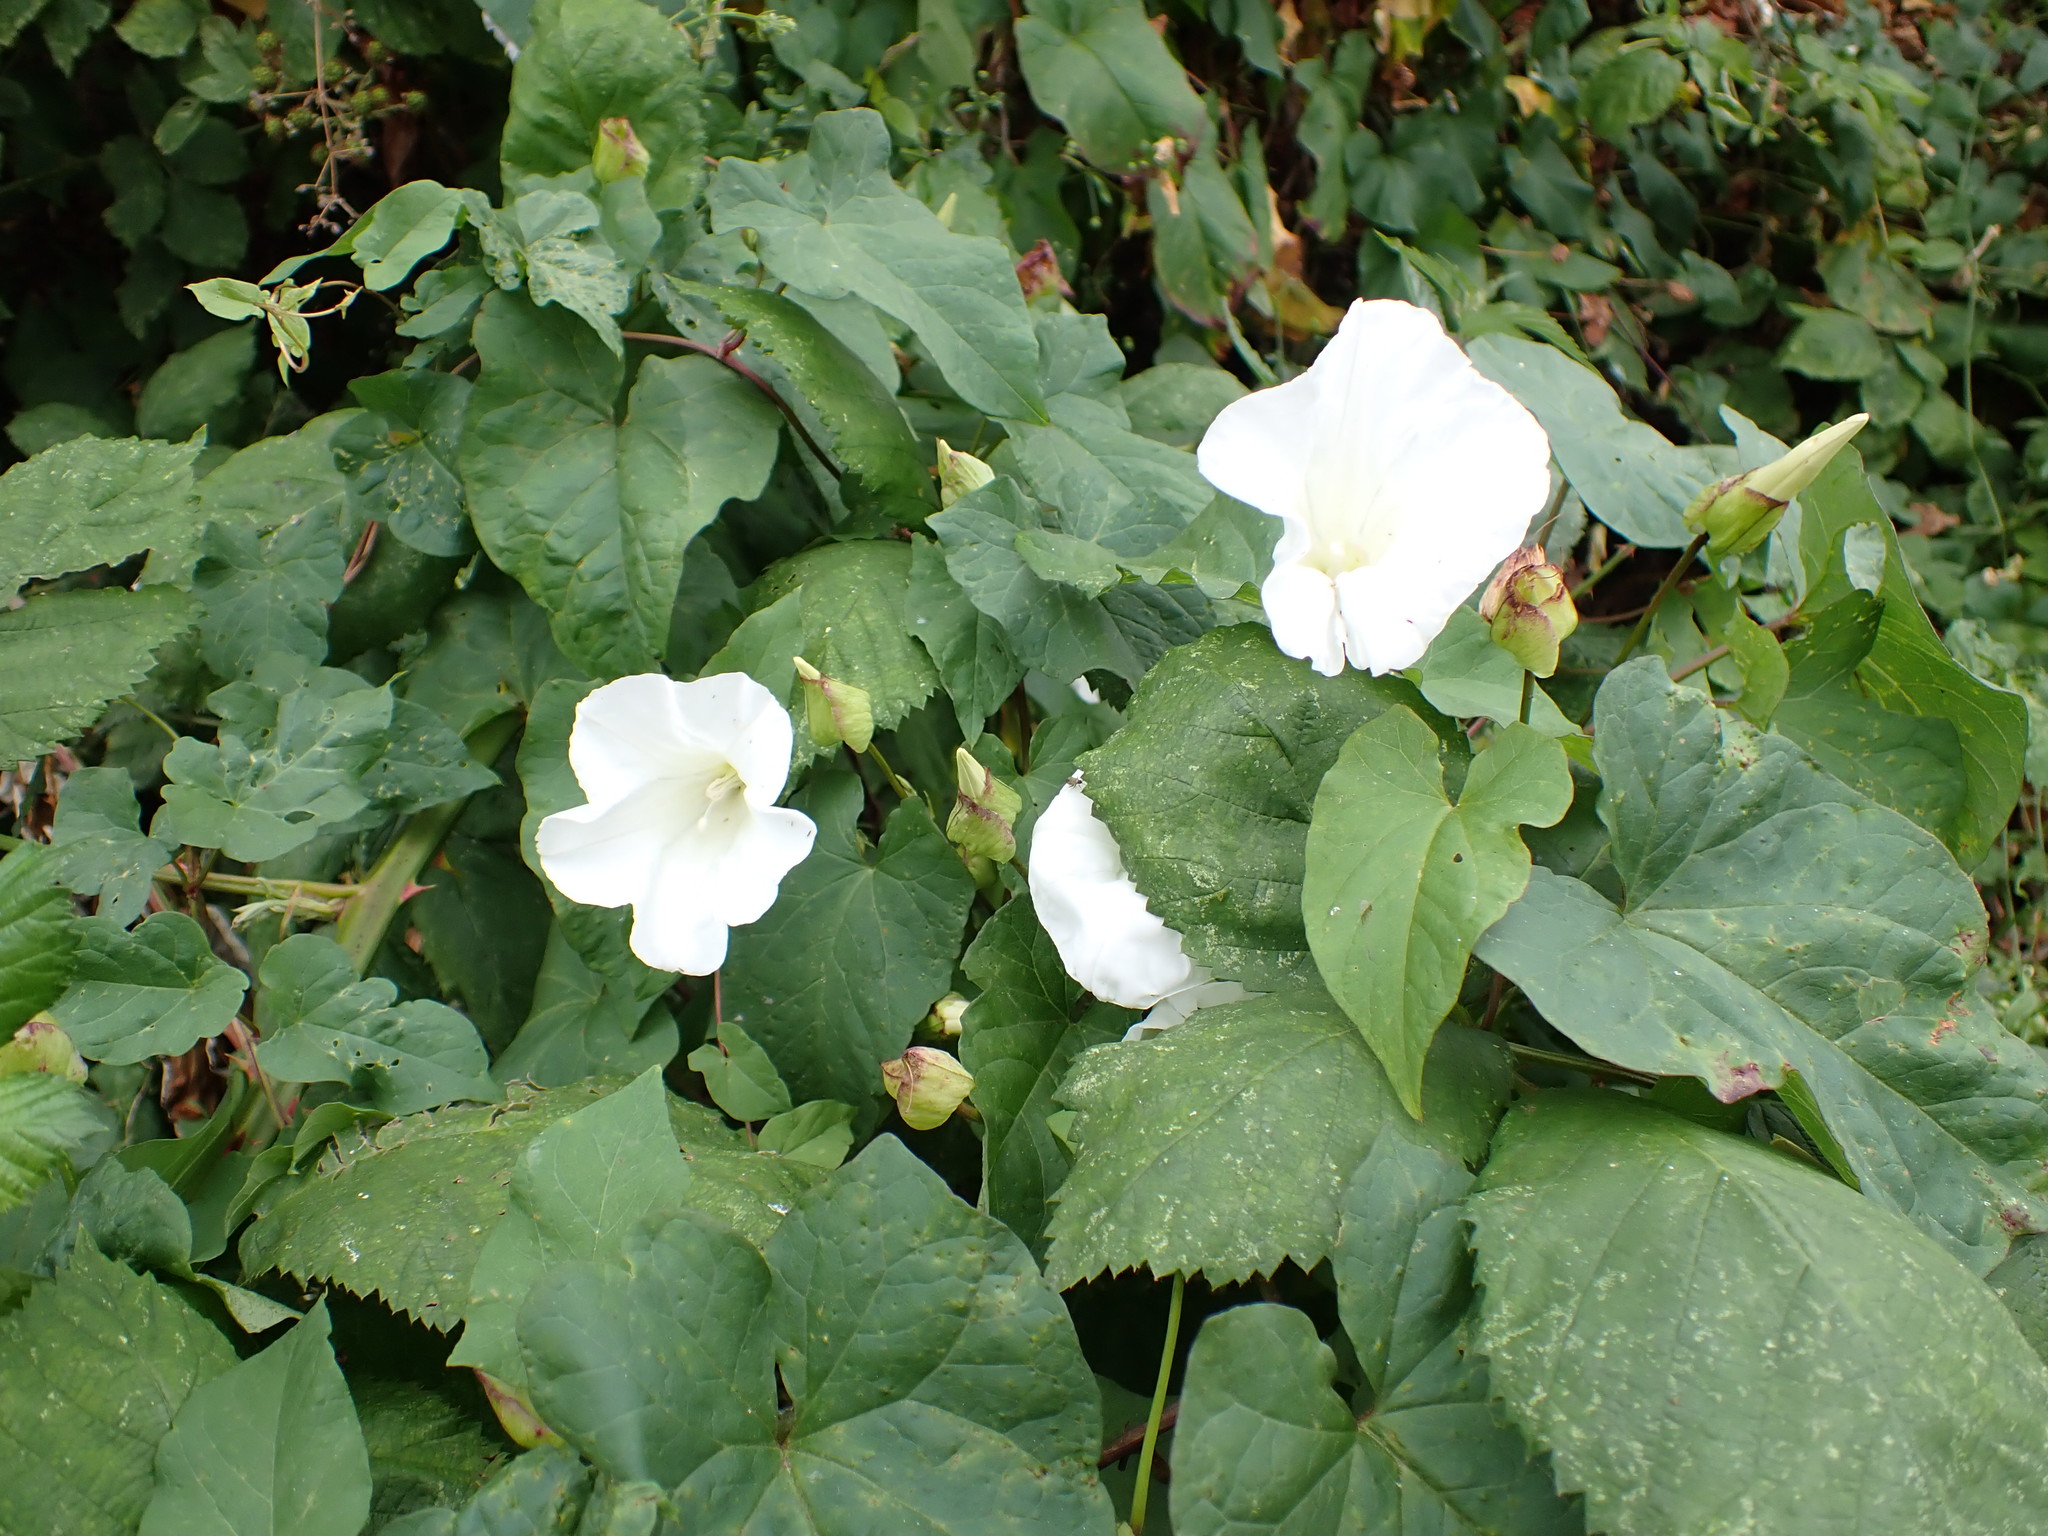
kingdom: Plantae
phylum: Tracheophyta
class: Magnoliopsida
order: Solanales
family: Convolvulaceae
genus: Calystegia
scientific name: Calystegia silvatica
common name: Large bindweed
